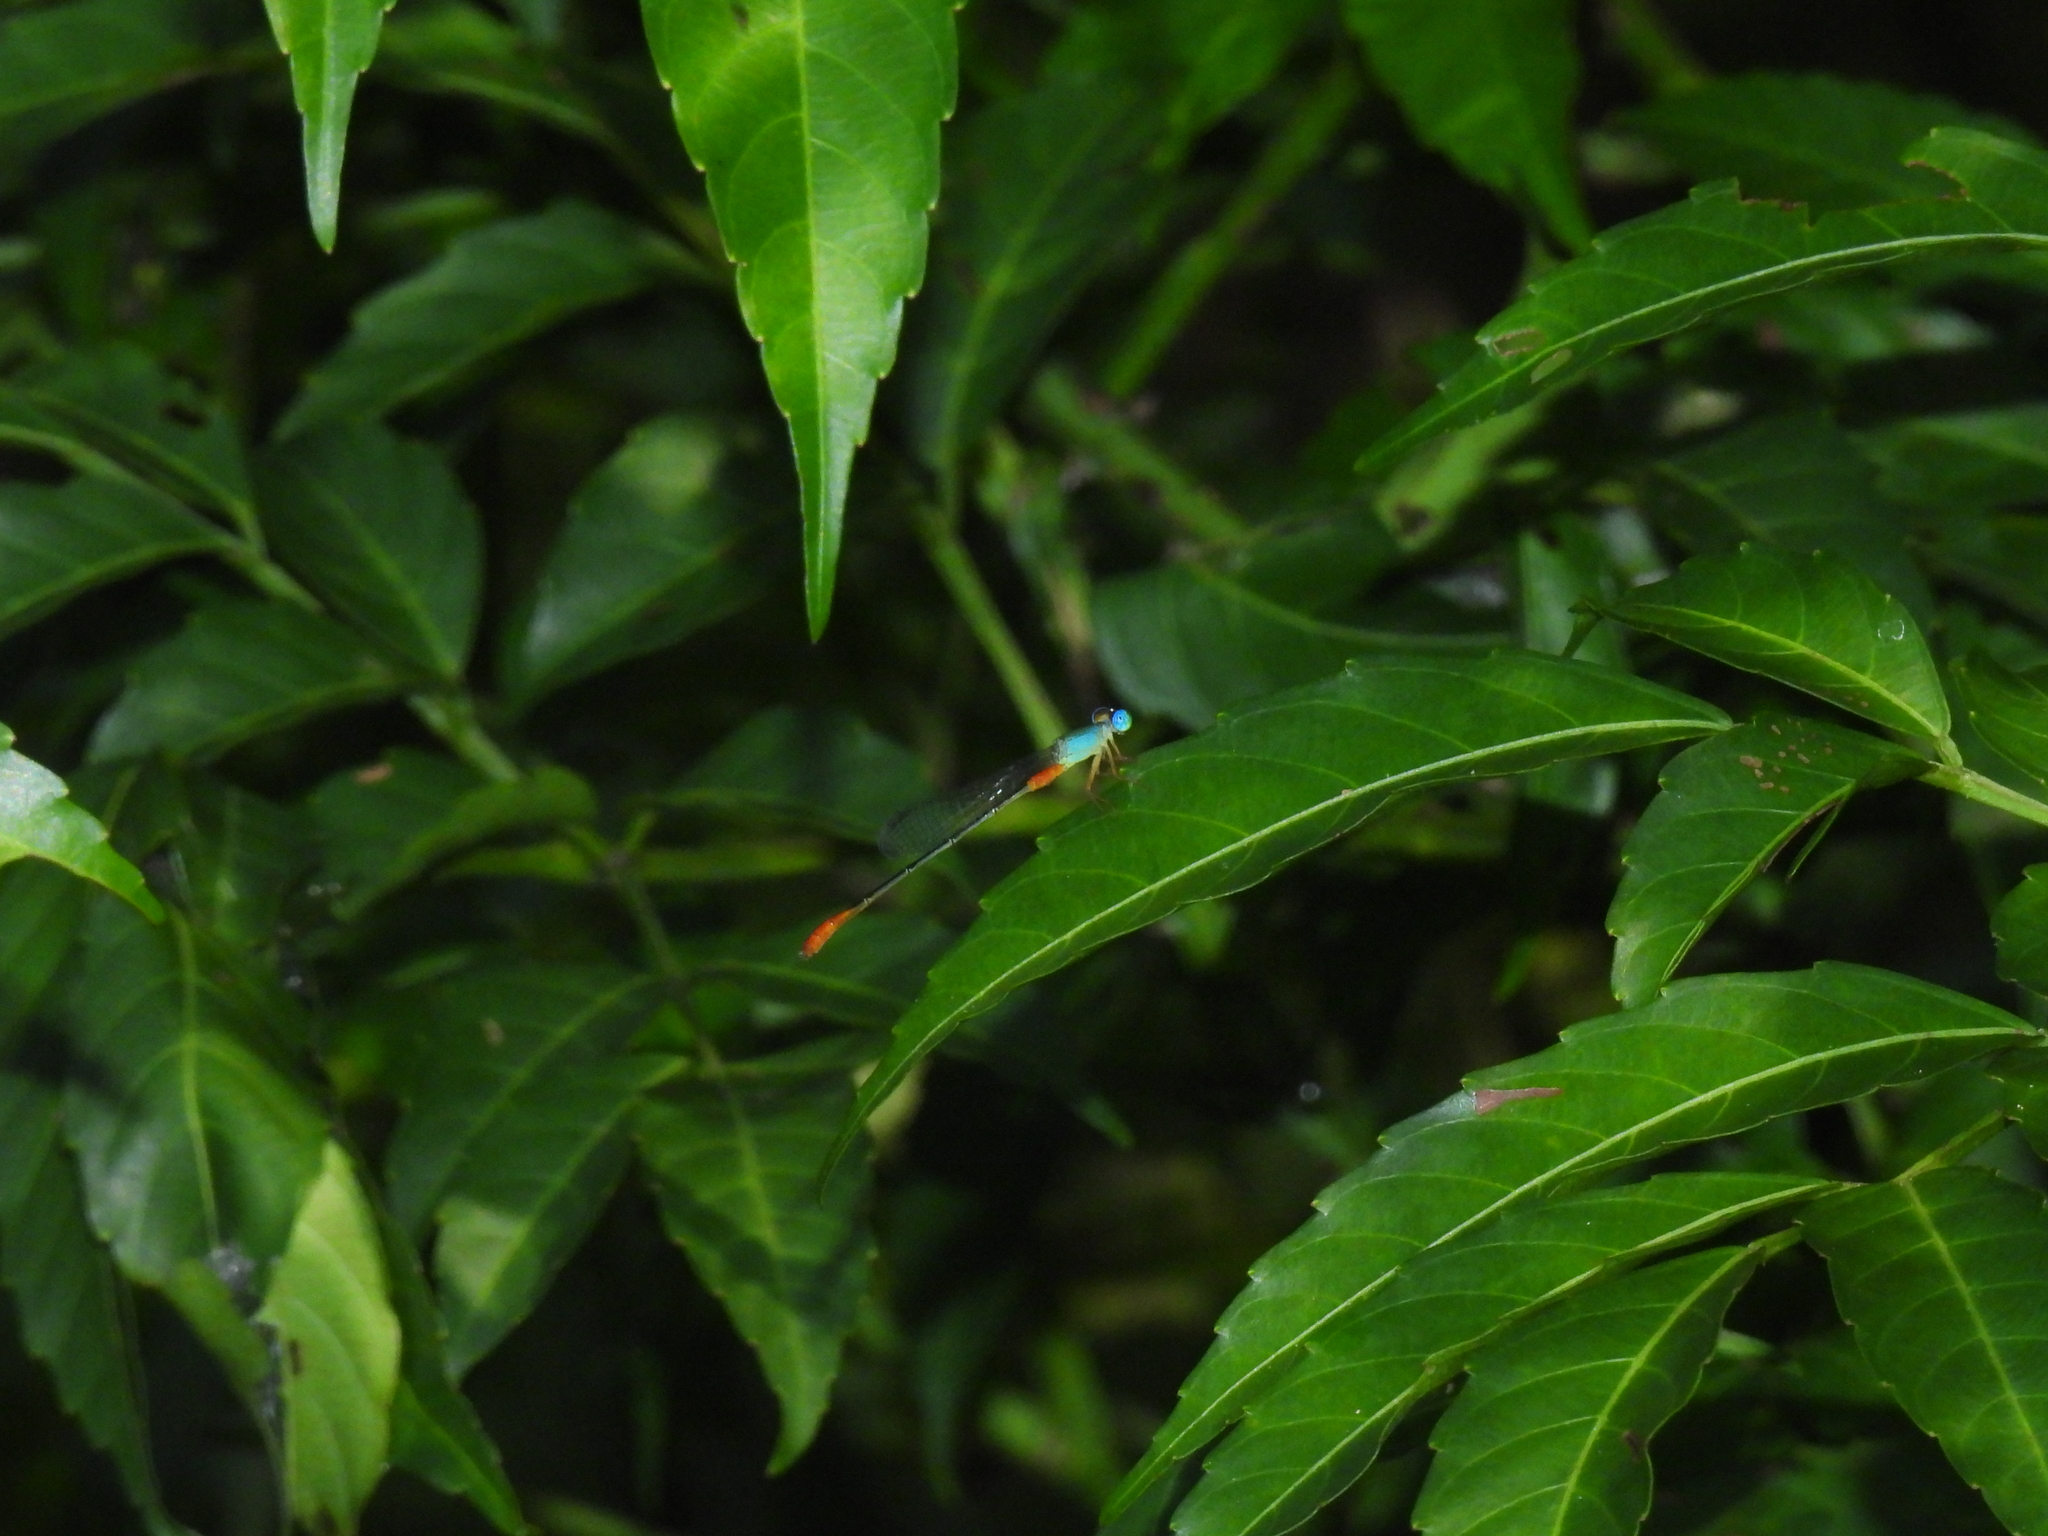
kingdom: Animalia
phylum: Arthropoda
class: Insecta
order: Odonata
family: Coenagrionidae
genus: Ceriagrion
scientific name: Ceriagrion cerinorubellum
